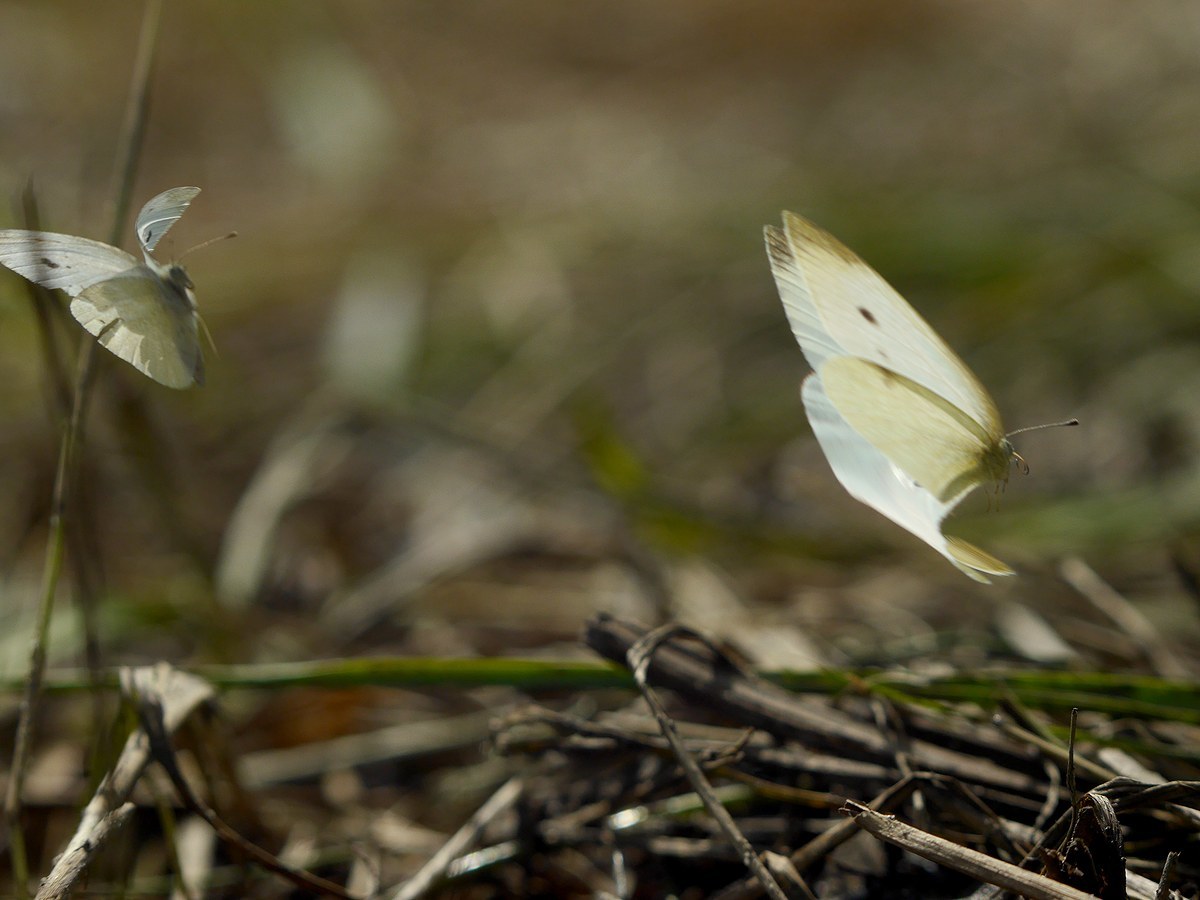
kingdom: Animalia
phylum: Arthropoda
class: Insecta
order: Lepidoptera
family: Pieridae
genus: Pieris
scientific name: Pieris rapae
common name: Small white
